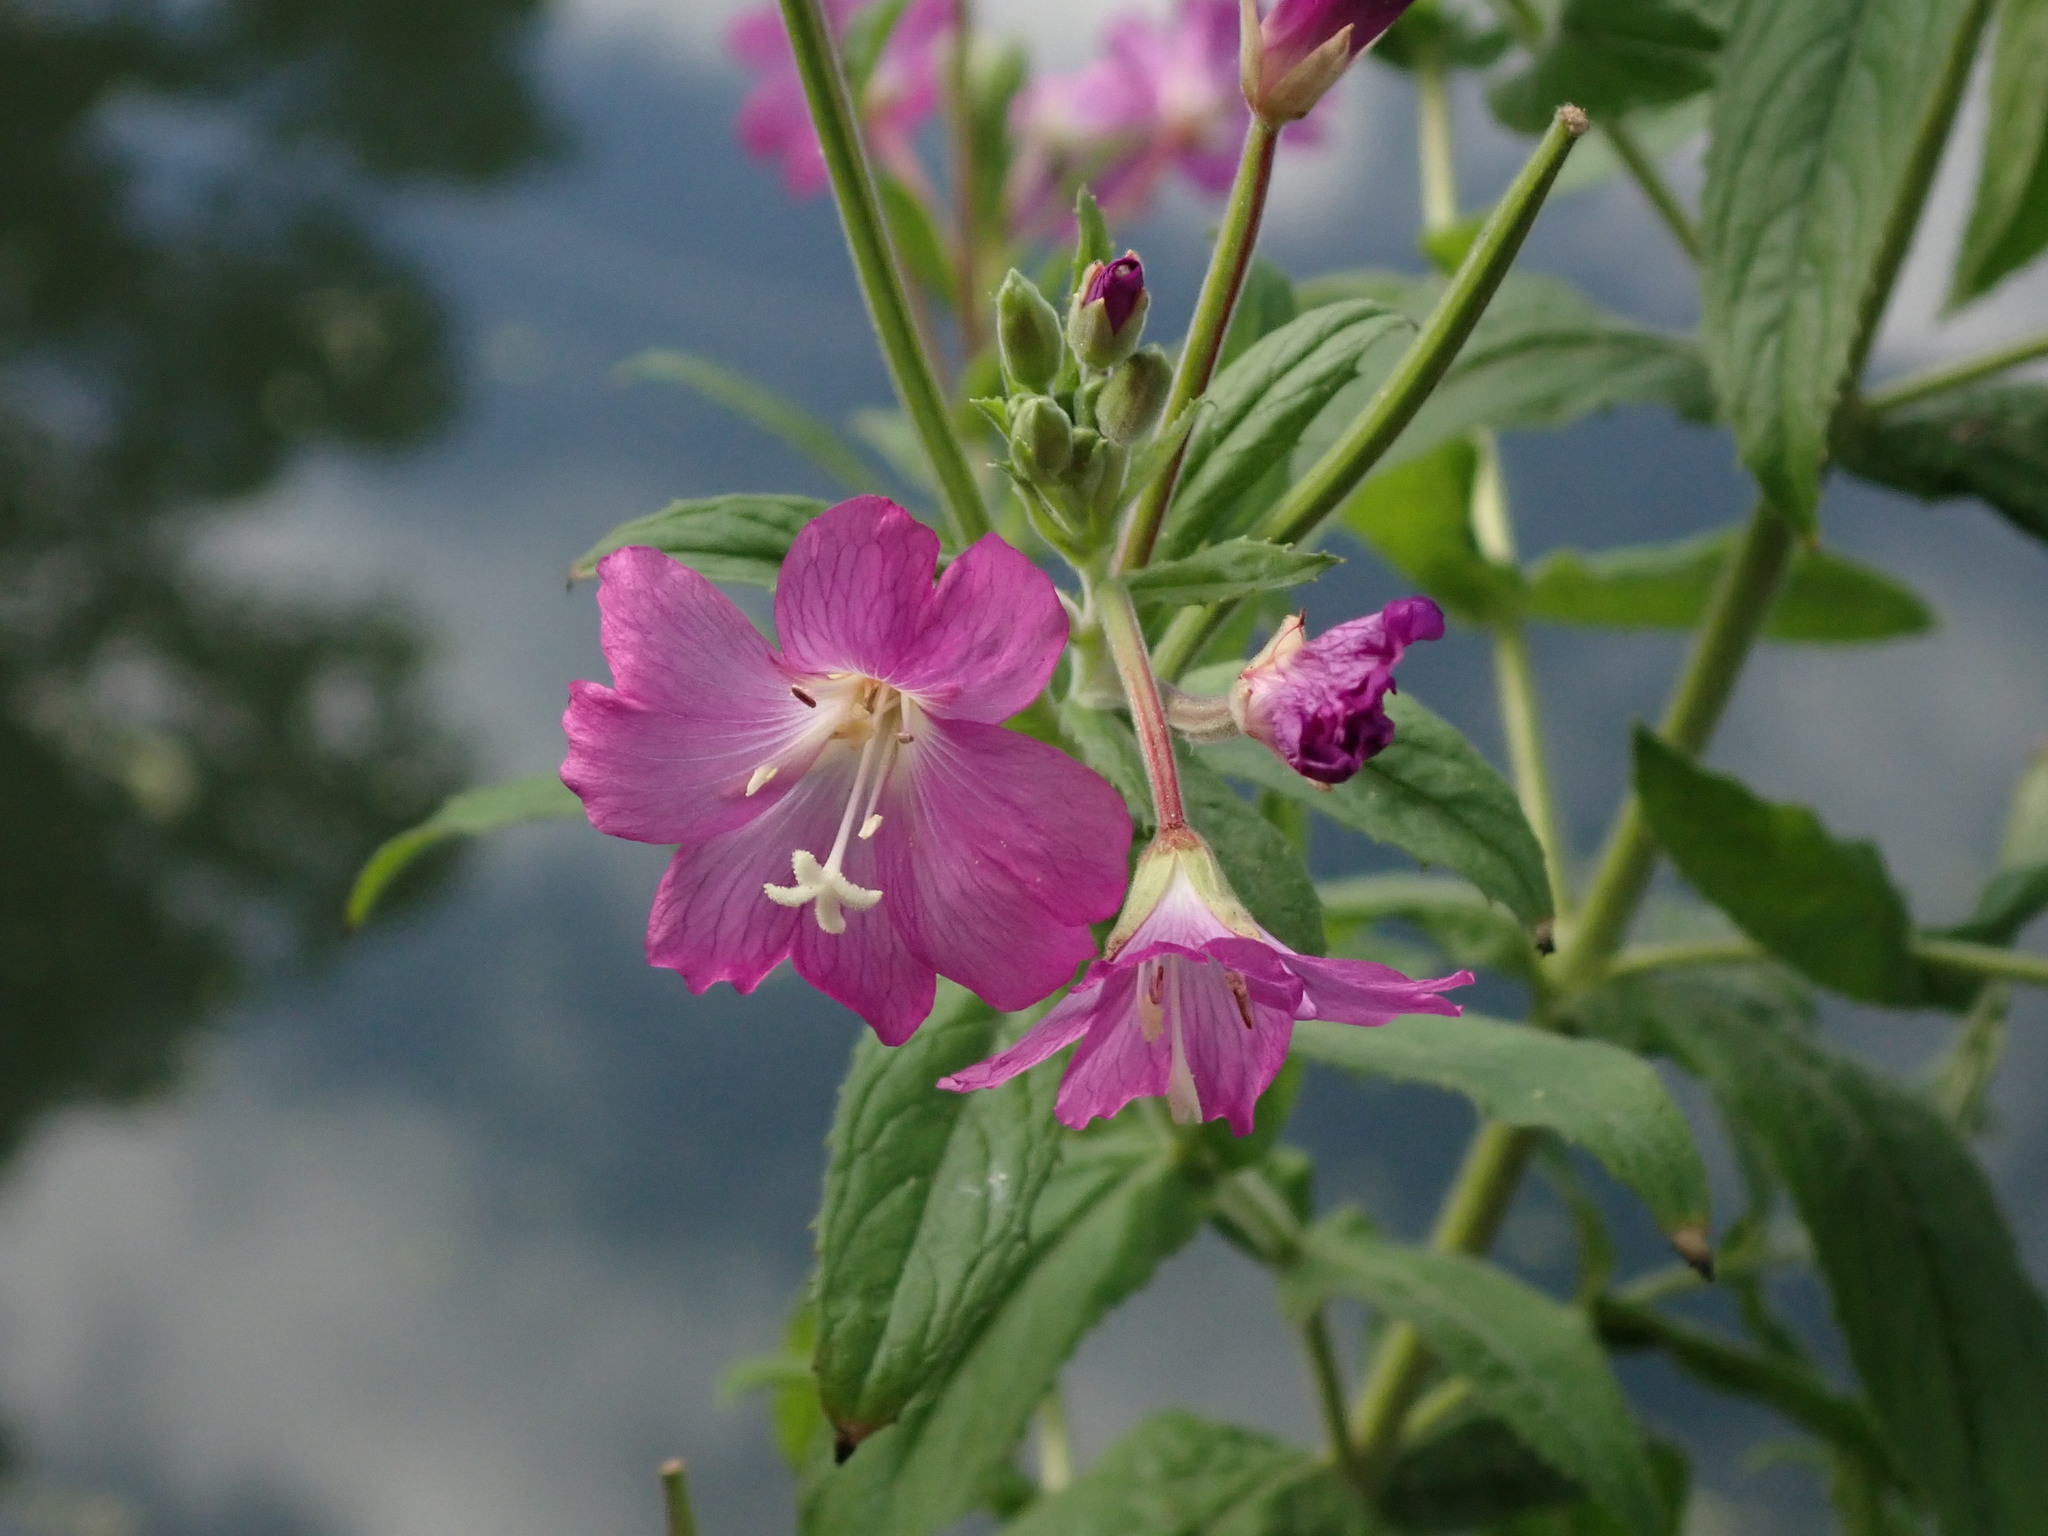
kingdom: Plantae
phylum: Tracheophyta
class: Magnoliopsida
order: Myrtales
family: Onagraceae
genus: Epilobium
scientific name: Epilobium hirsutum
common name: Great willowherb
